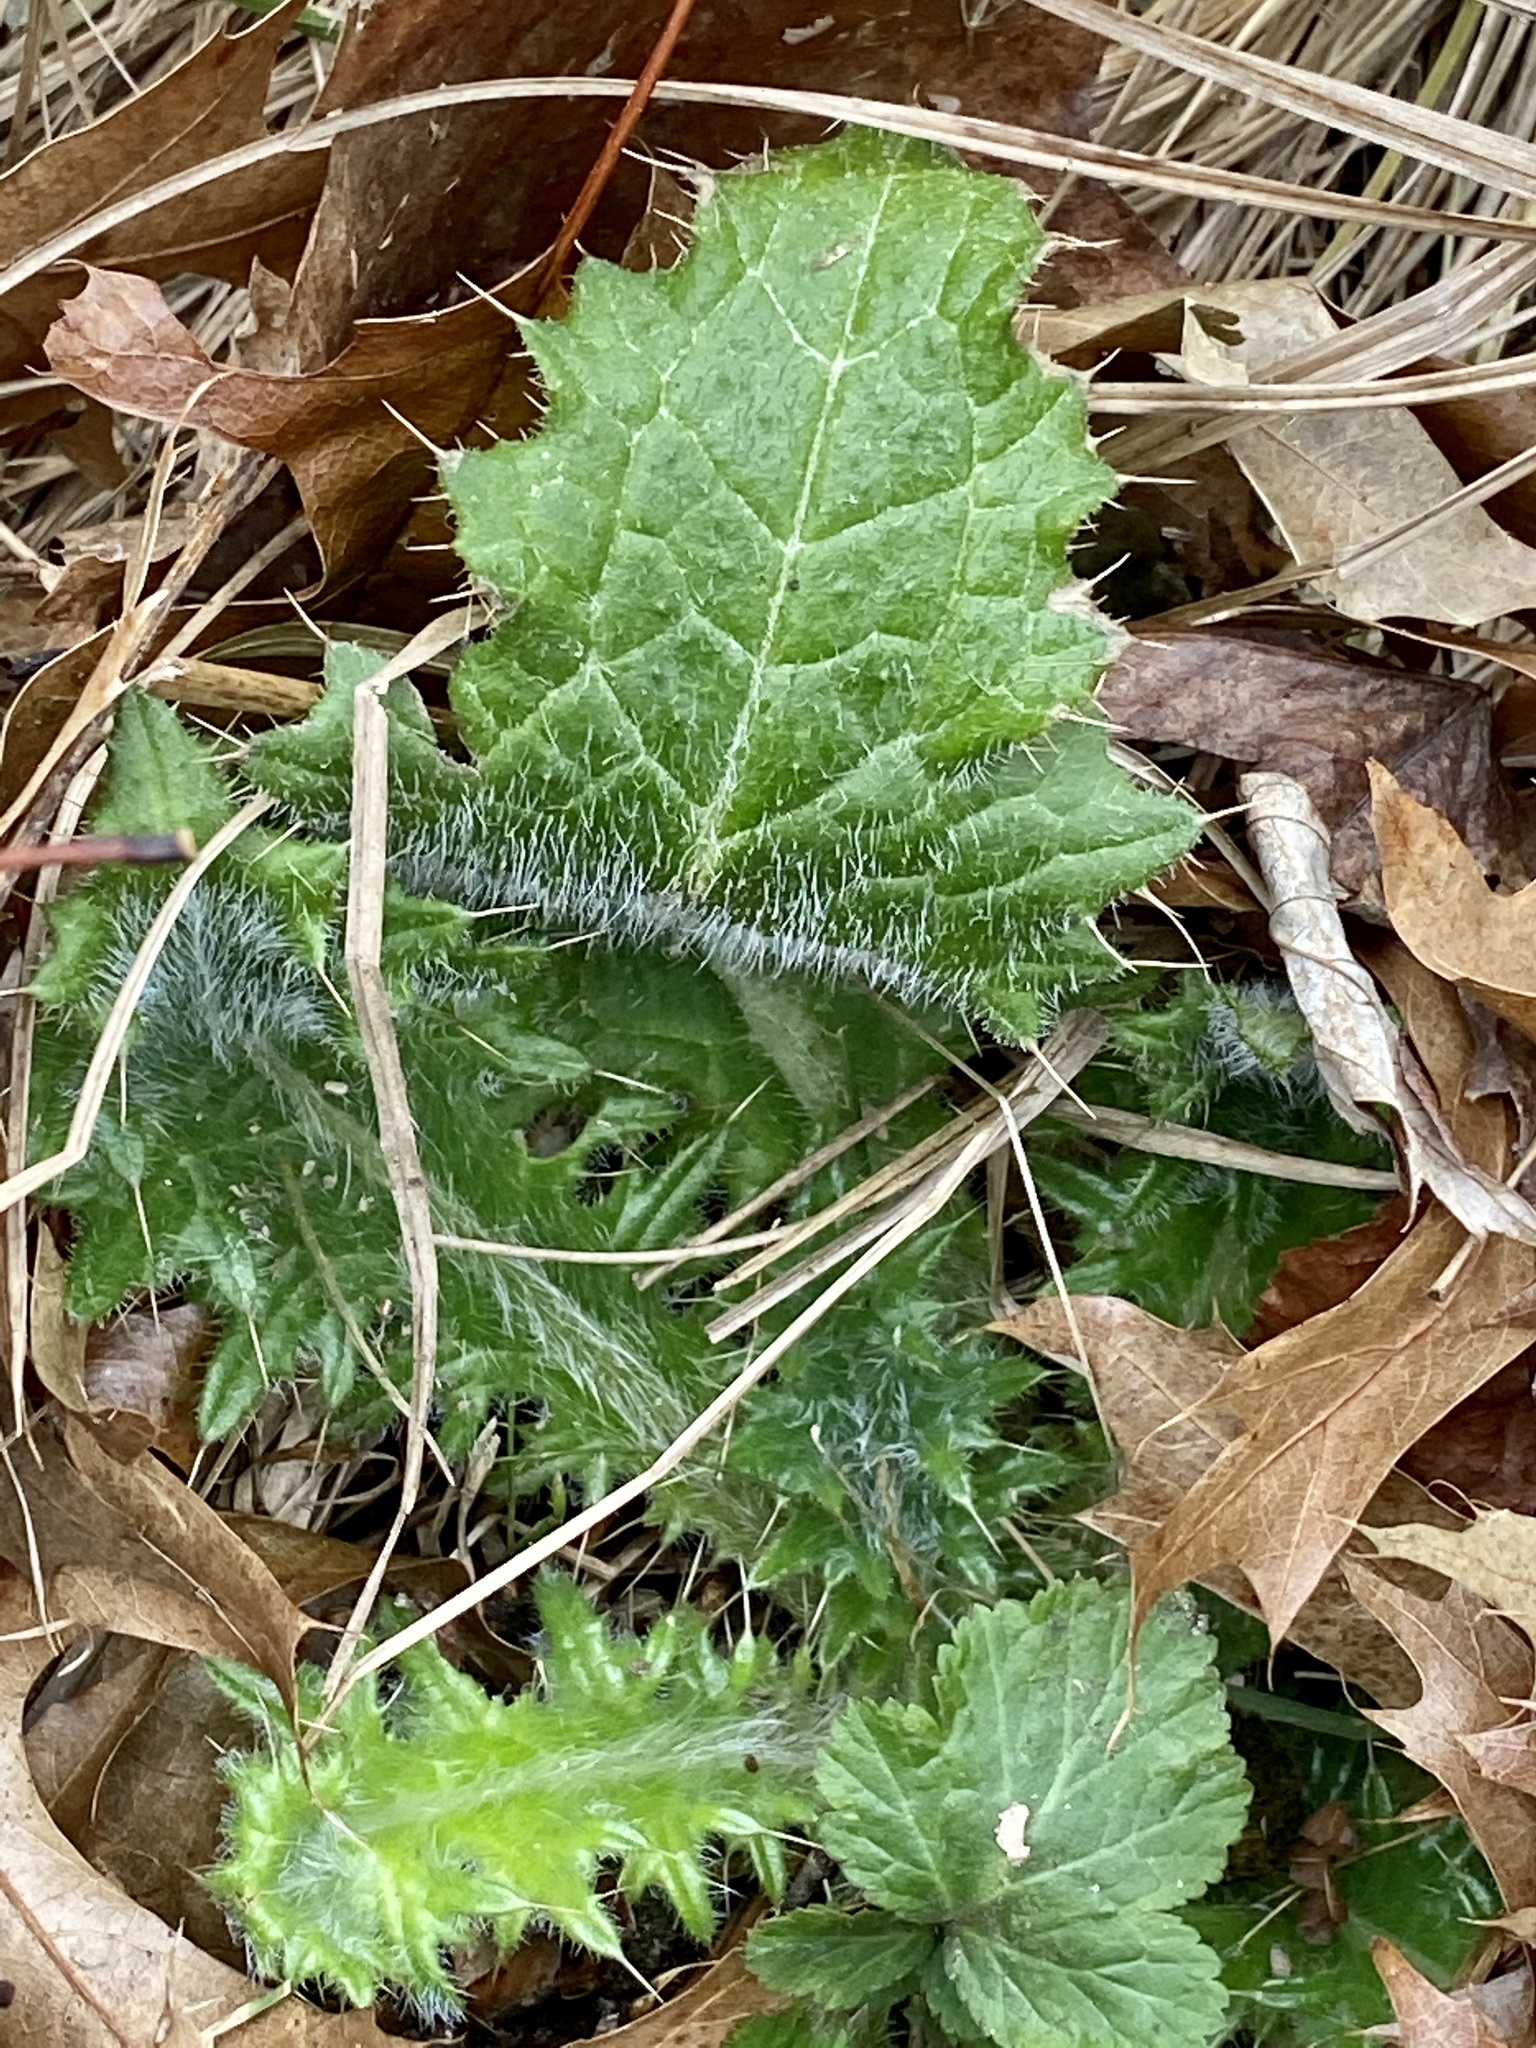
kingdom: Plantae
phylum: Tracheophyta
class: Magnoliopsida
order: Asterales
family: Asteraceae
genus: Cirsium
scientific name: Cirsium vulgare
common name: Bull thistle
